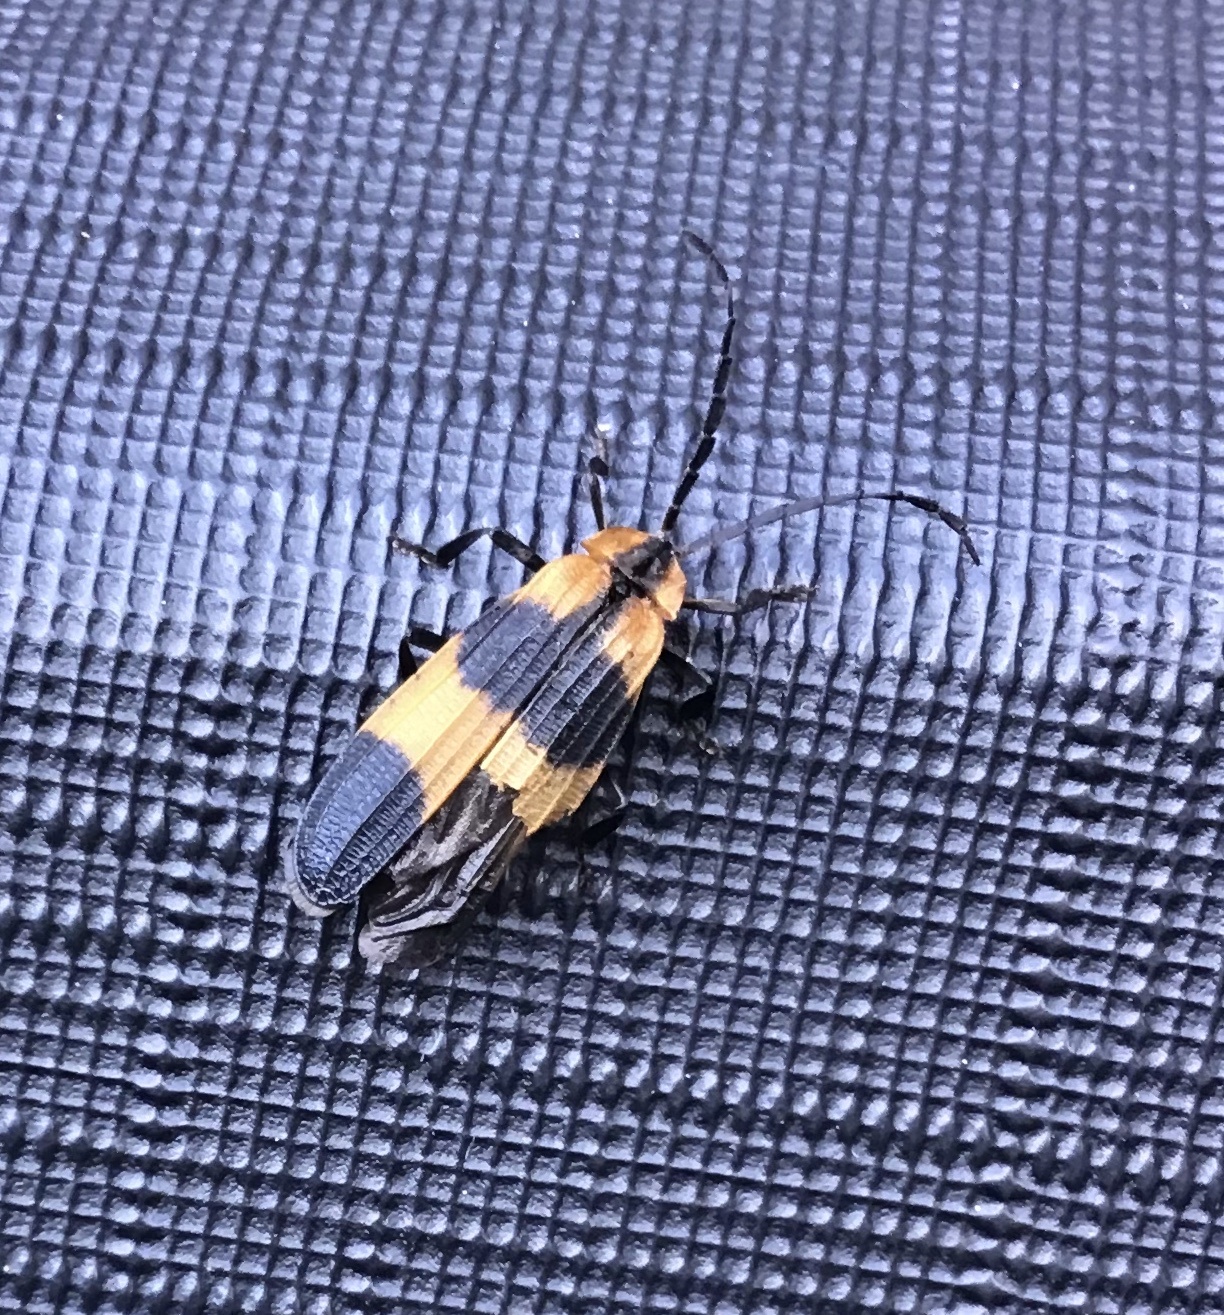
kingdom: Animalia
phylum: Arthropoda
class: Insecta
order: Coleoptera
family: Lycidae
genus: Calopteron
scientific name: Calopteron reticulatum
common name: Banded net-winged beetle
